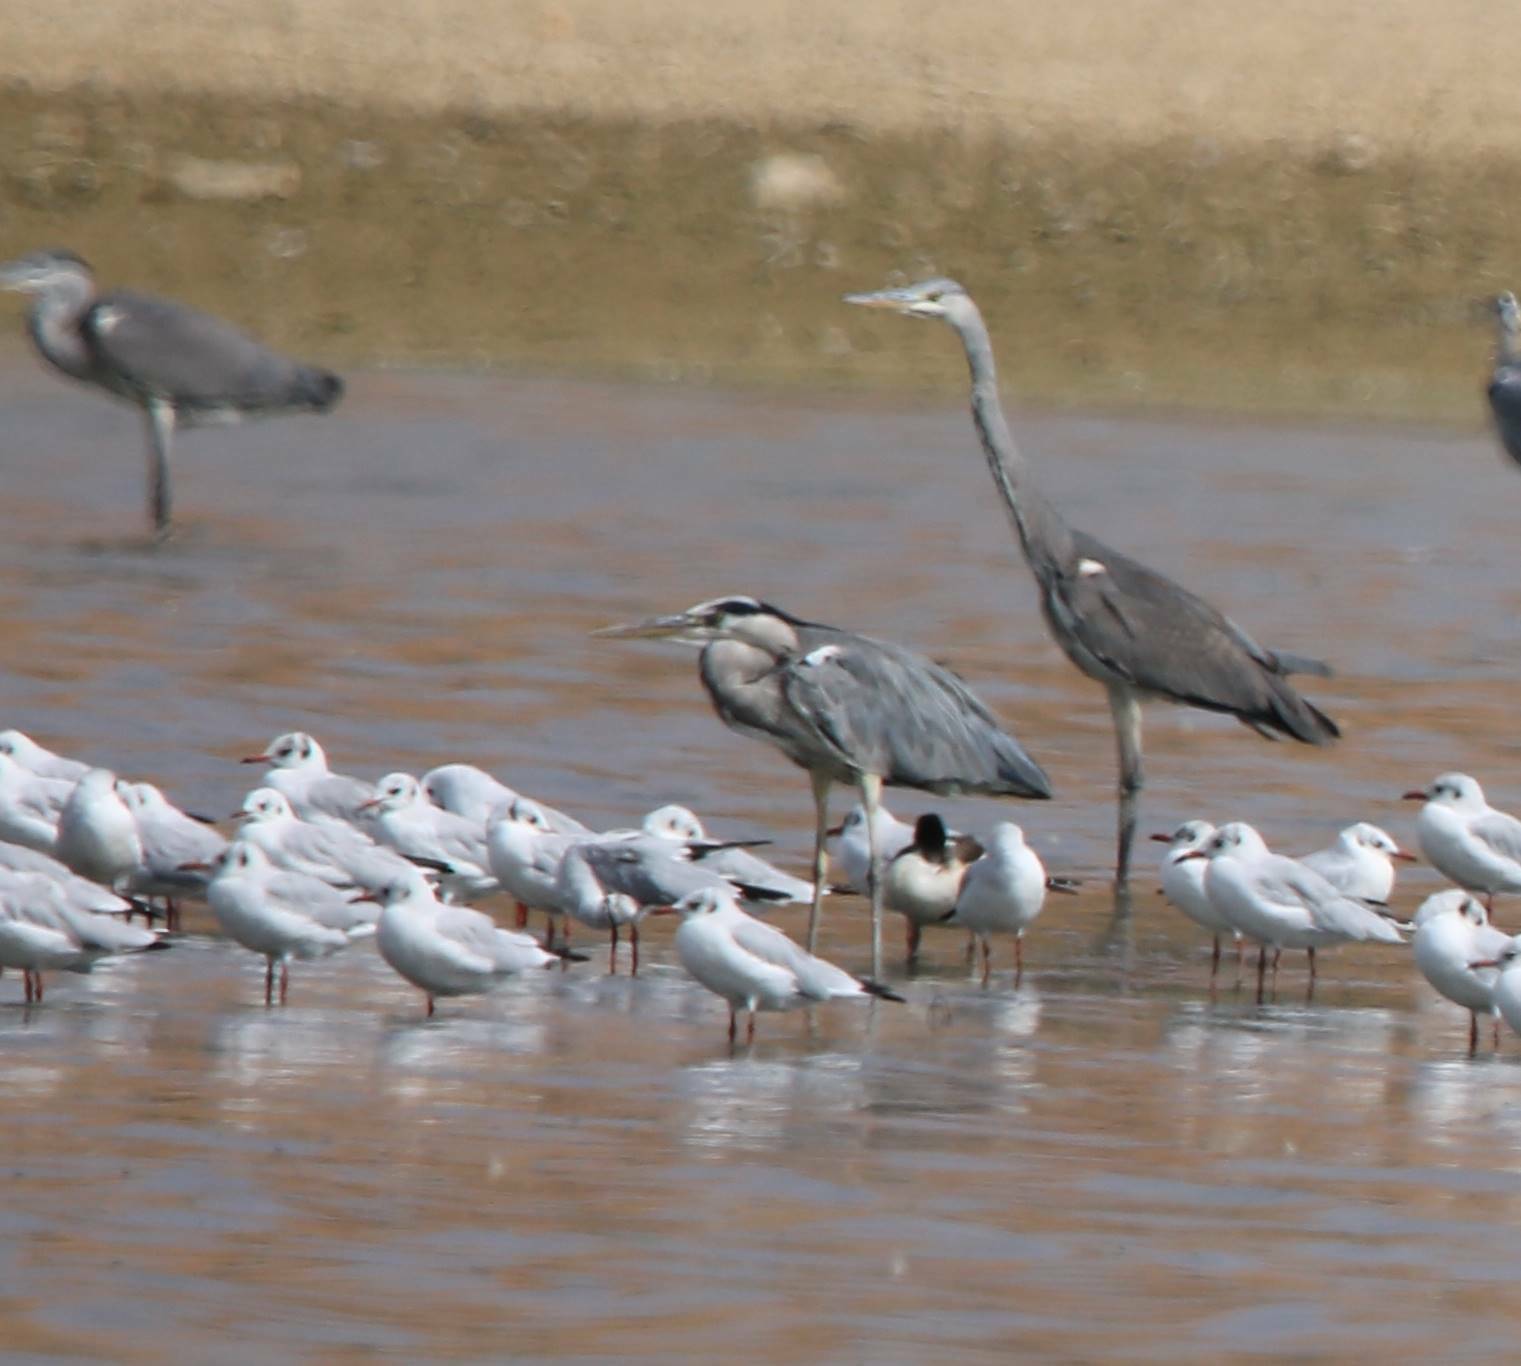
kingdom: Animalia
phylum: Chordata
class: Aves
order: Pelecaniformes
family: Ardeidae
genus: Ardea
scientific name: Ardea cinerea
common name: Grey heron
